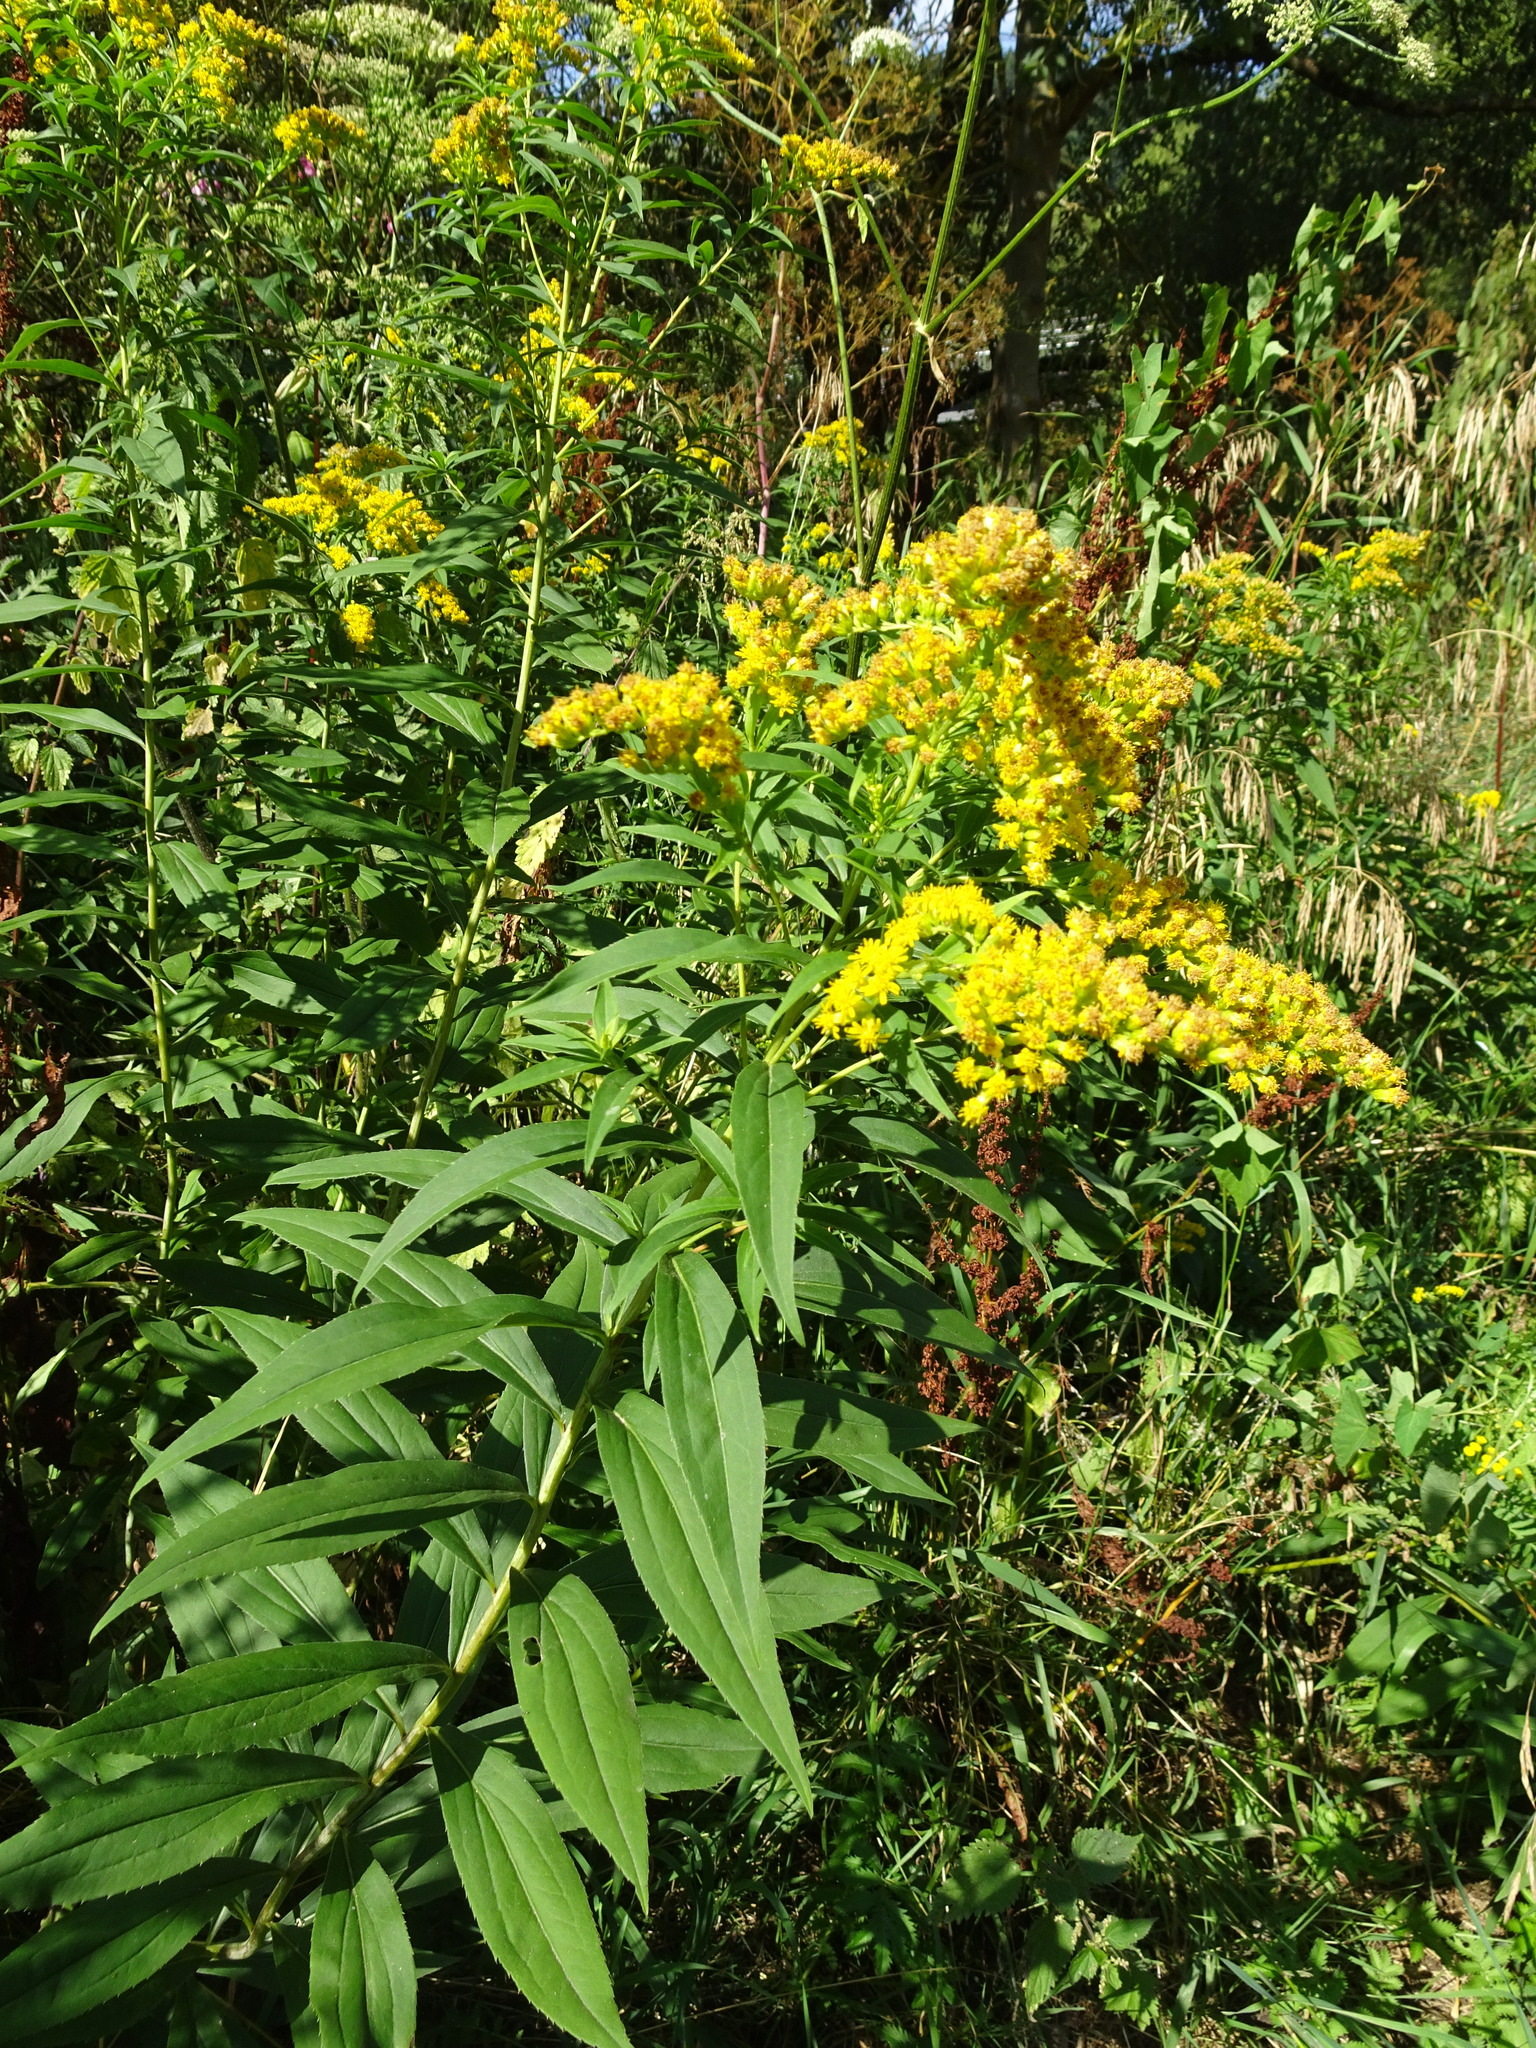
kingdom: Plantae
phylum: Tracheophyta
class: Magnoliopsida
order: Asterales
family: Asteraceae
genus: Solidago
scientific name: Solidago canadensis
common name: Canada goldenrod
